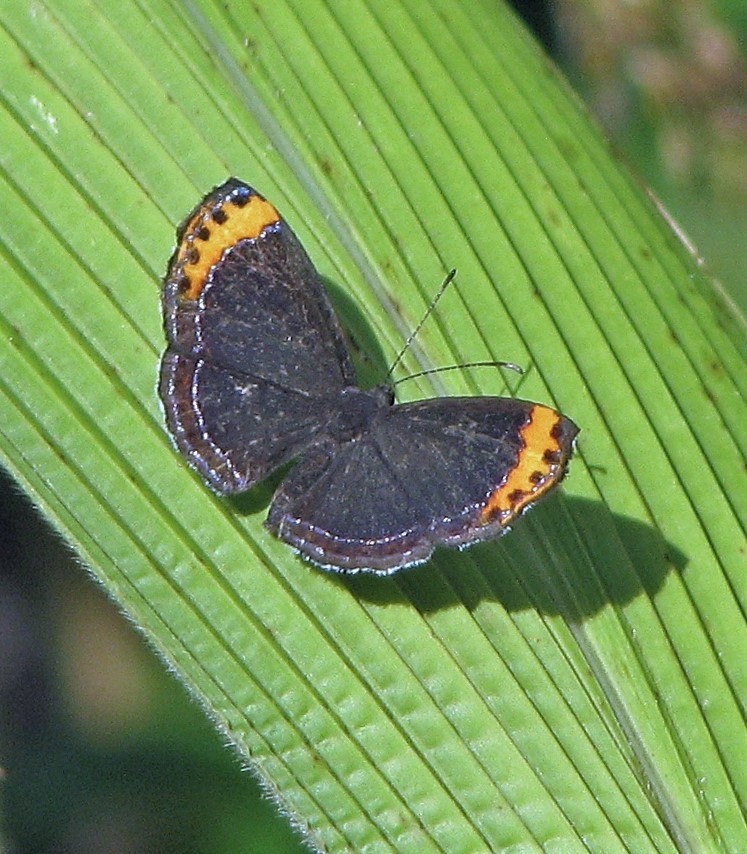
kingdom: Animalia
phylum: Arthropoda
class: Insecta
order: Lepidoptera
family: Riodinidae
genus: Nelone
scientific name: Nelone cadmeis
